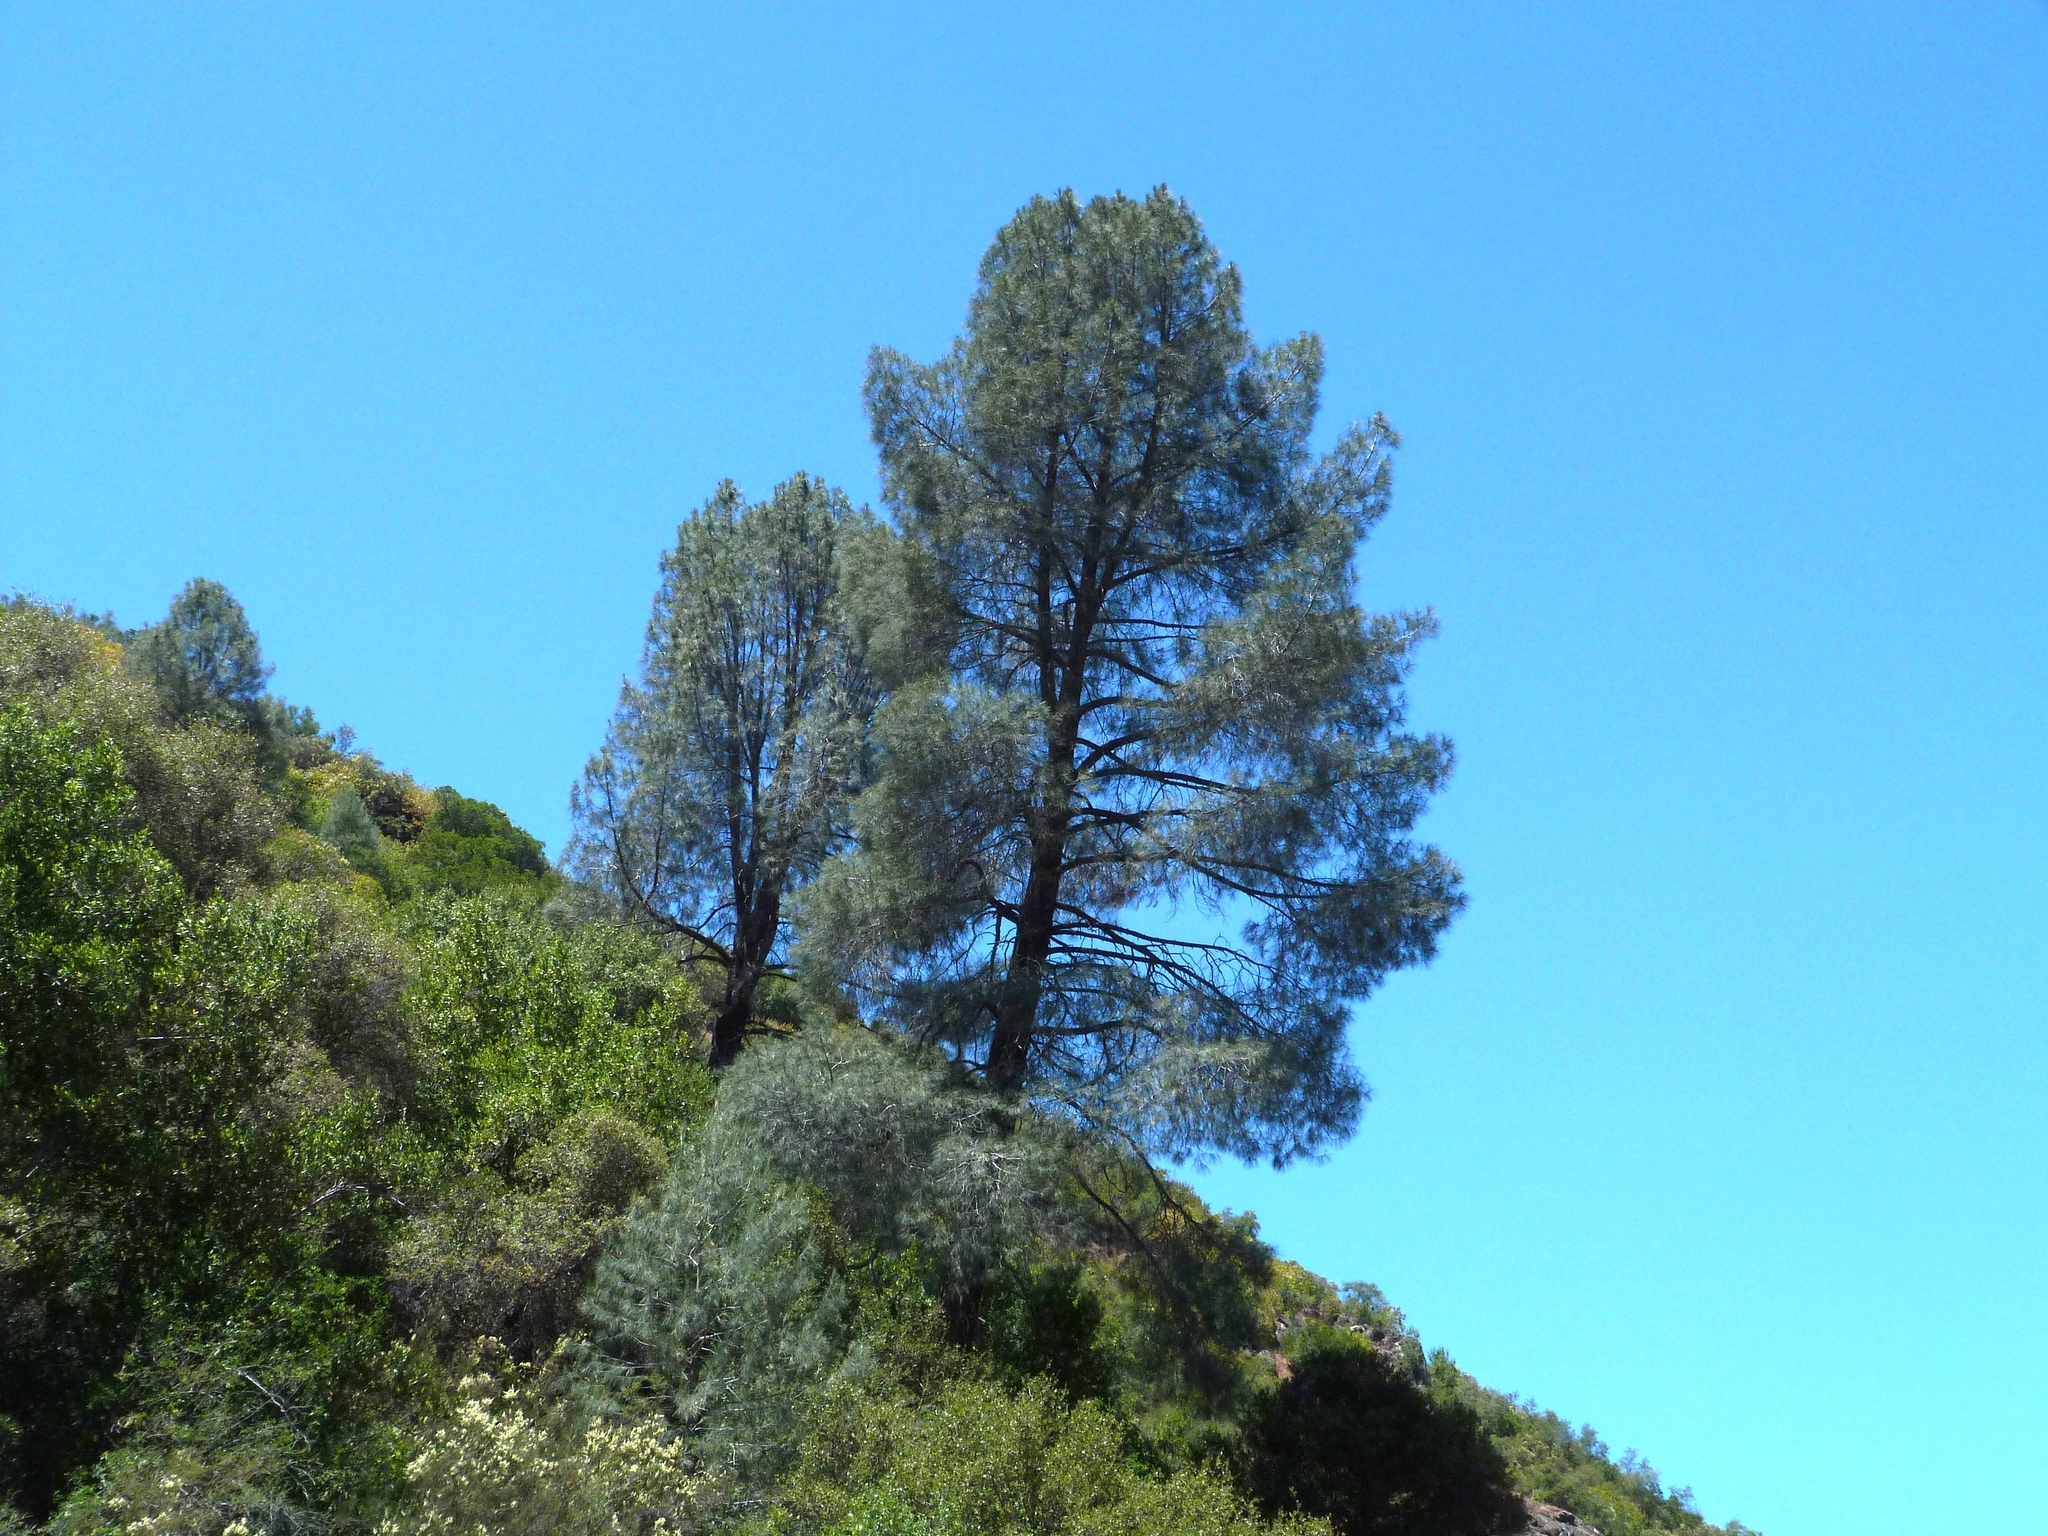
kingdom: Plantae
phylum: Tracheophyta
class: Pinopsida
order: Pinales
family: Pinaceae
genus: Pinus
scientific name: Pinus sabiniana
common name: Bull pine
